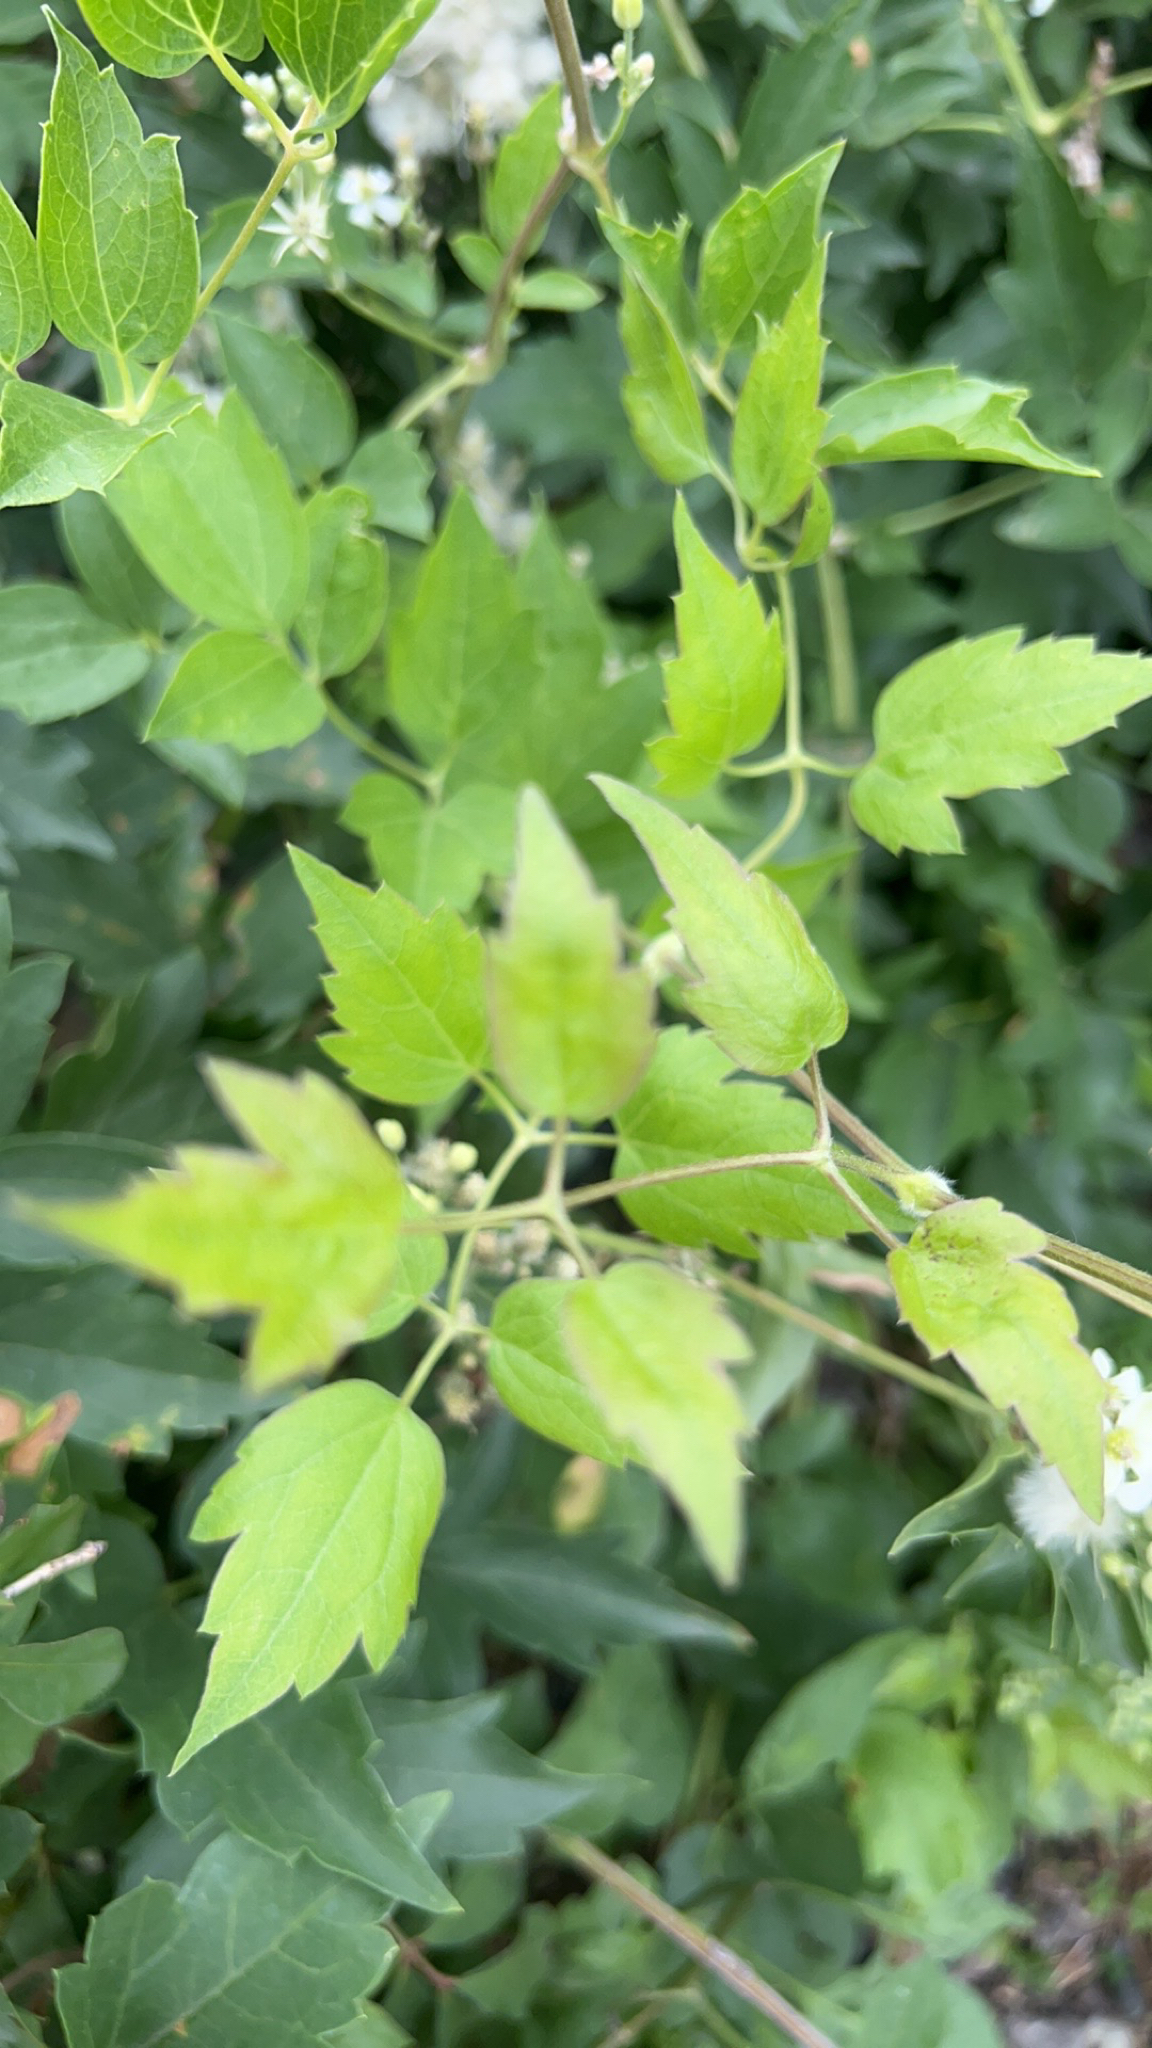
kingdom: Plantae
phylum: Tracheophyta
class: Magnoliopsida
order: Ranunculales
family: Ranunculaceae
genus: Clematis
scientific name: Clematis ligusticifolia
